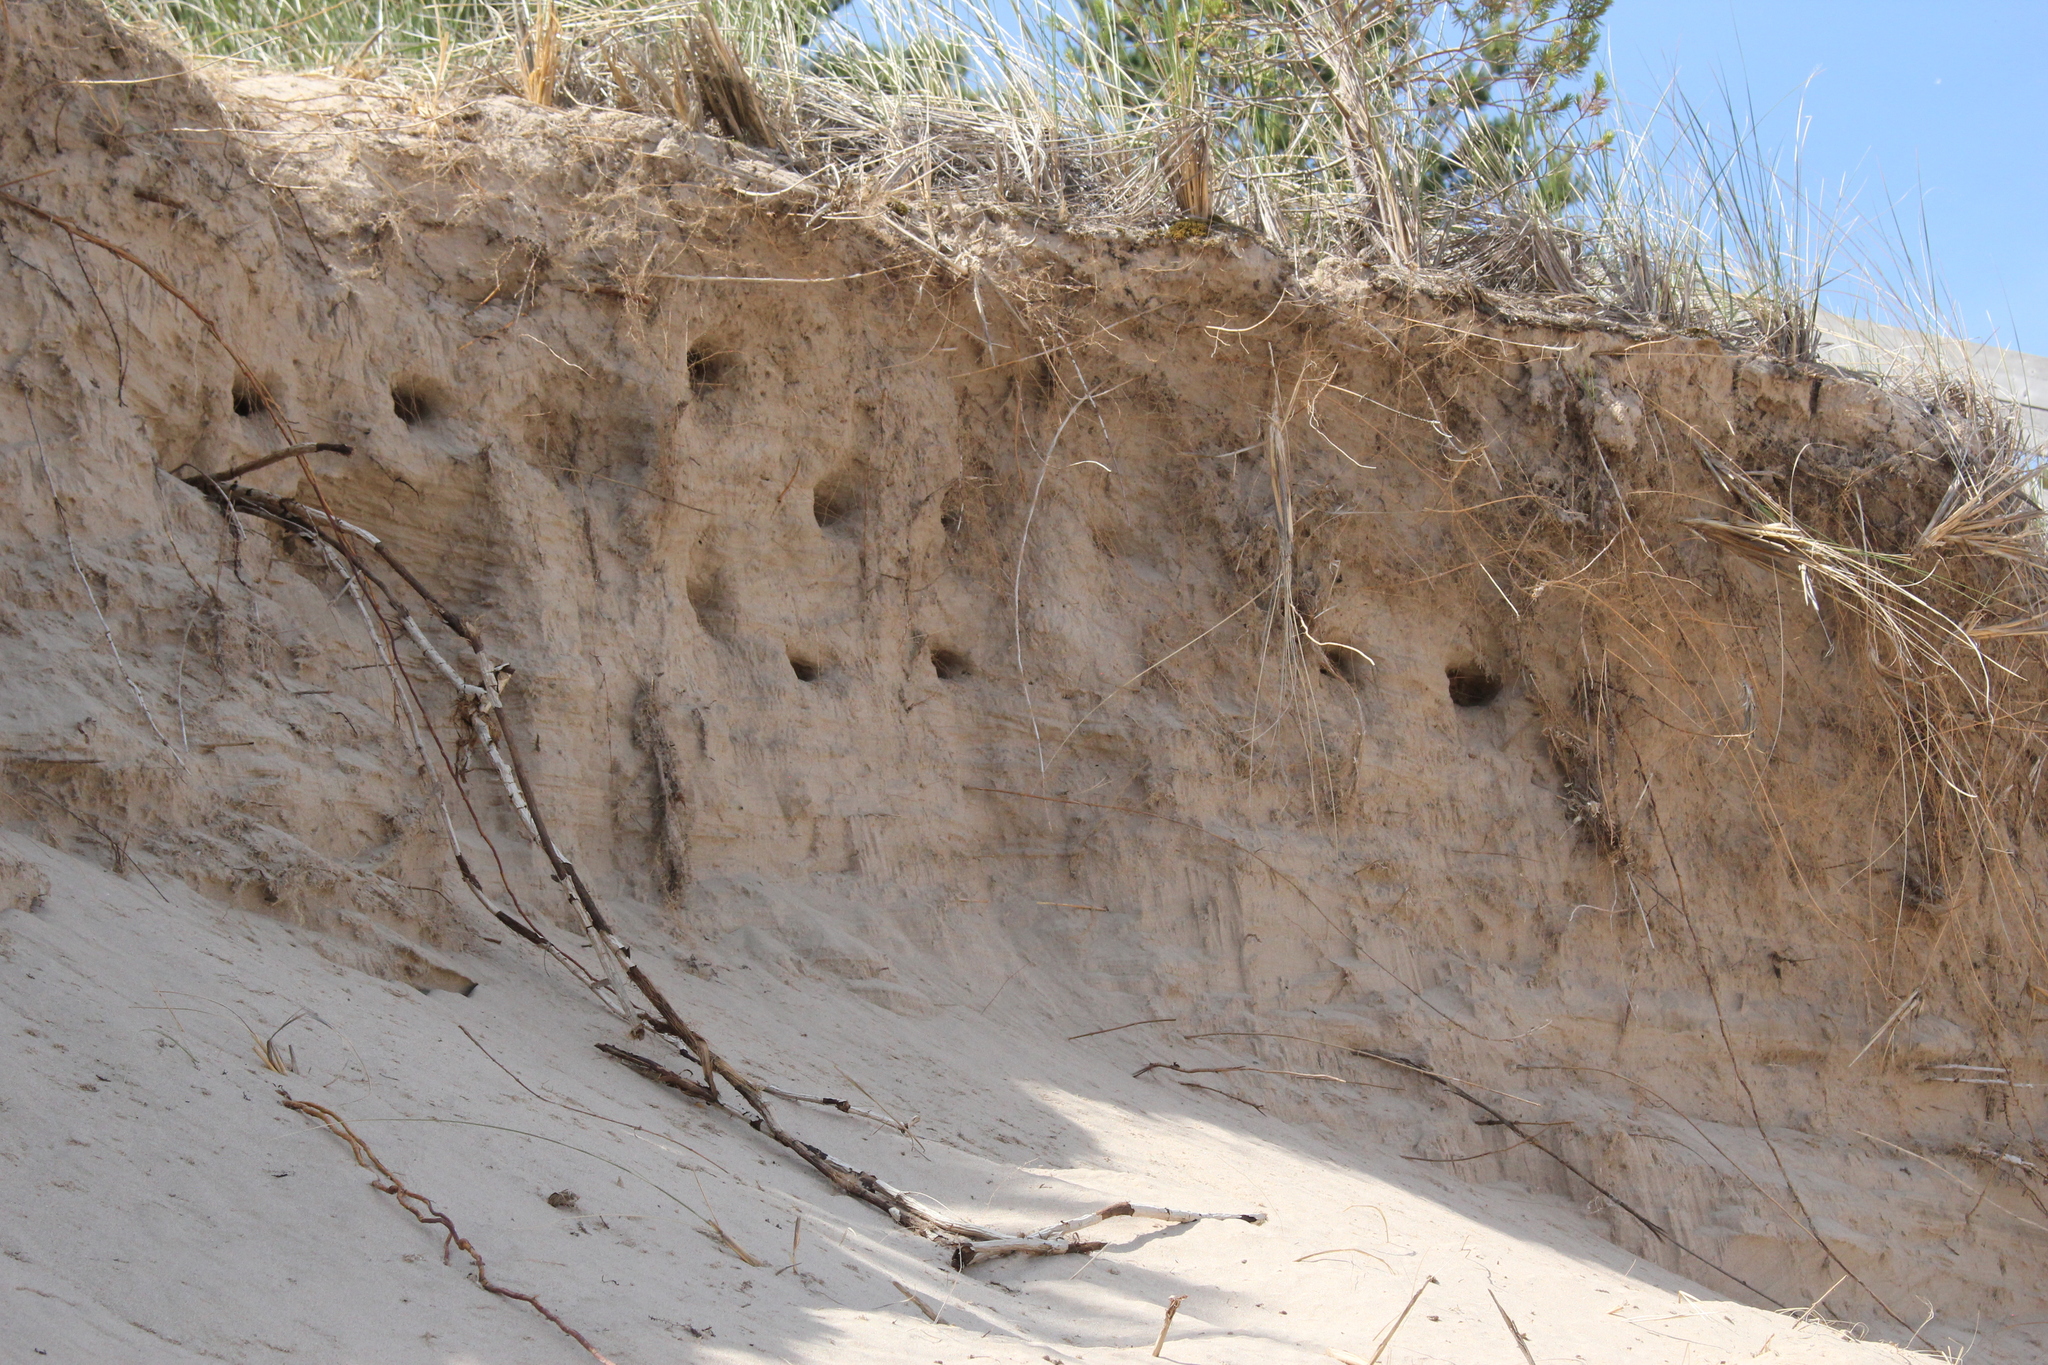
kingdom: Animalia
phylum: Chordata
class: Aves
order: Passeriformes
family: Hirundinidae
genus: Riparia
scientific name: Riparia riparia
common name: Sand martin
